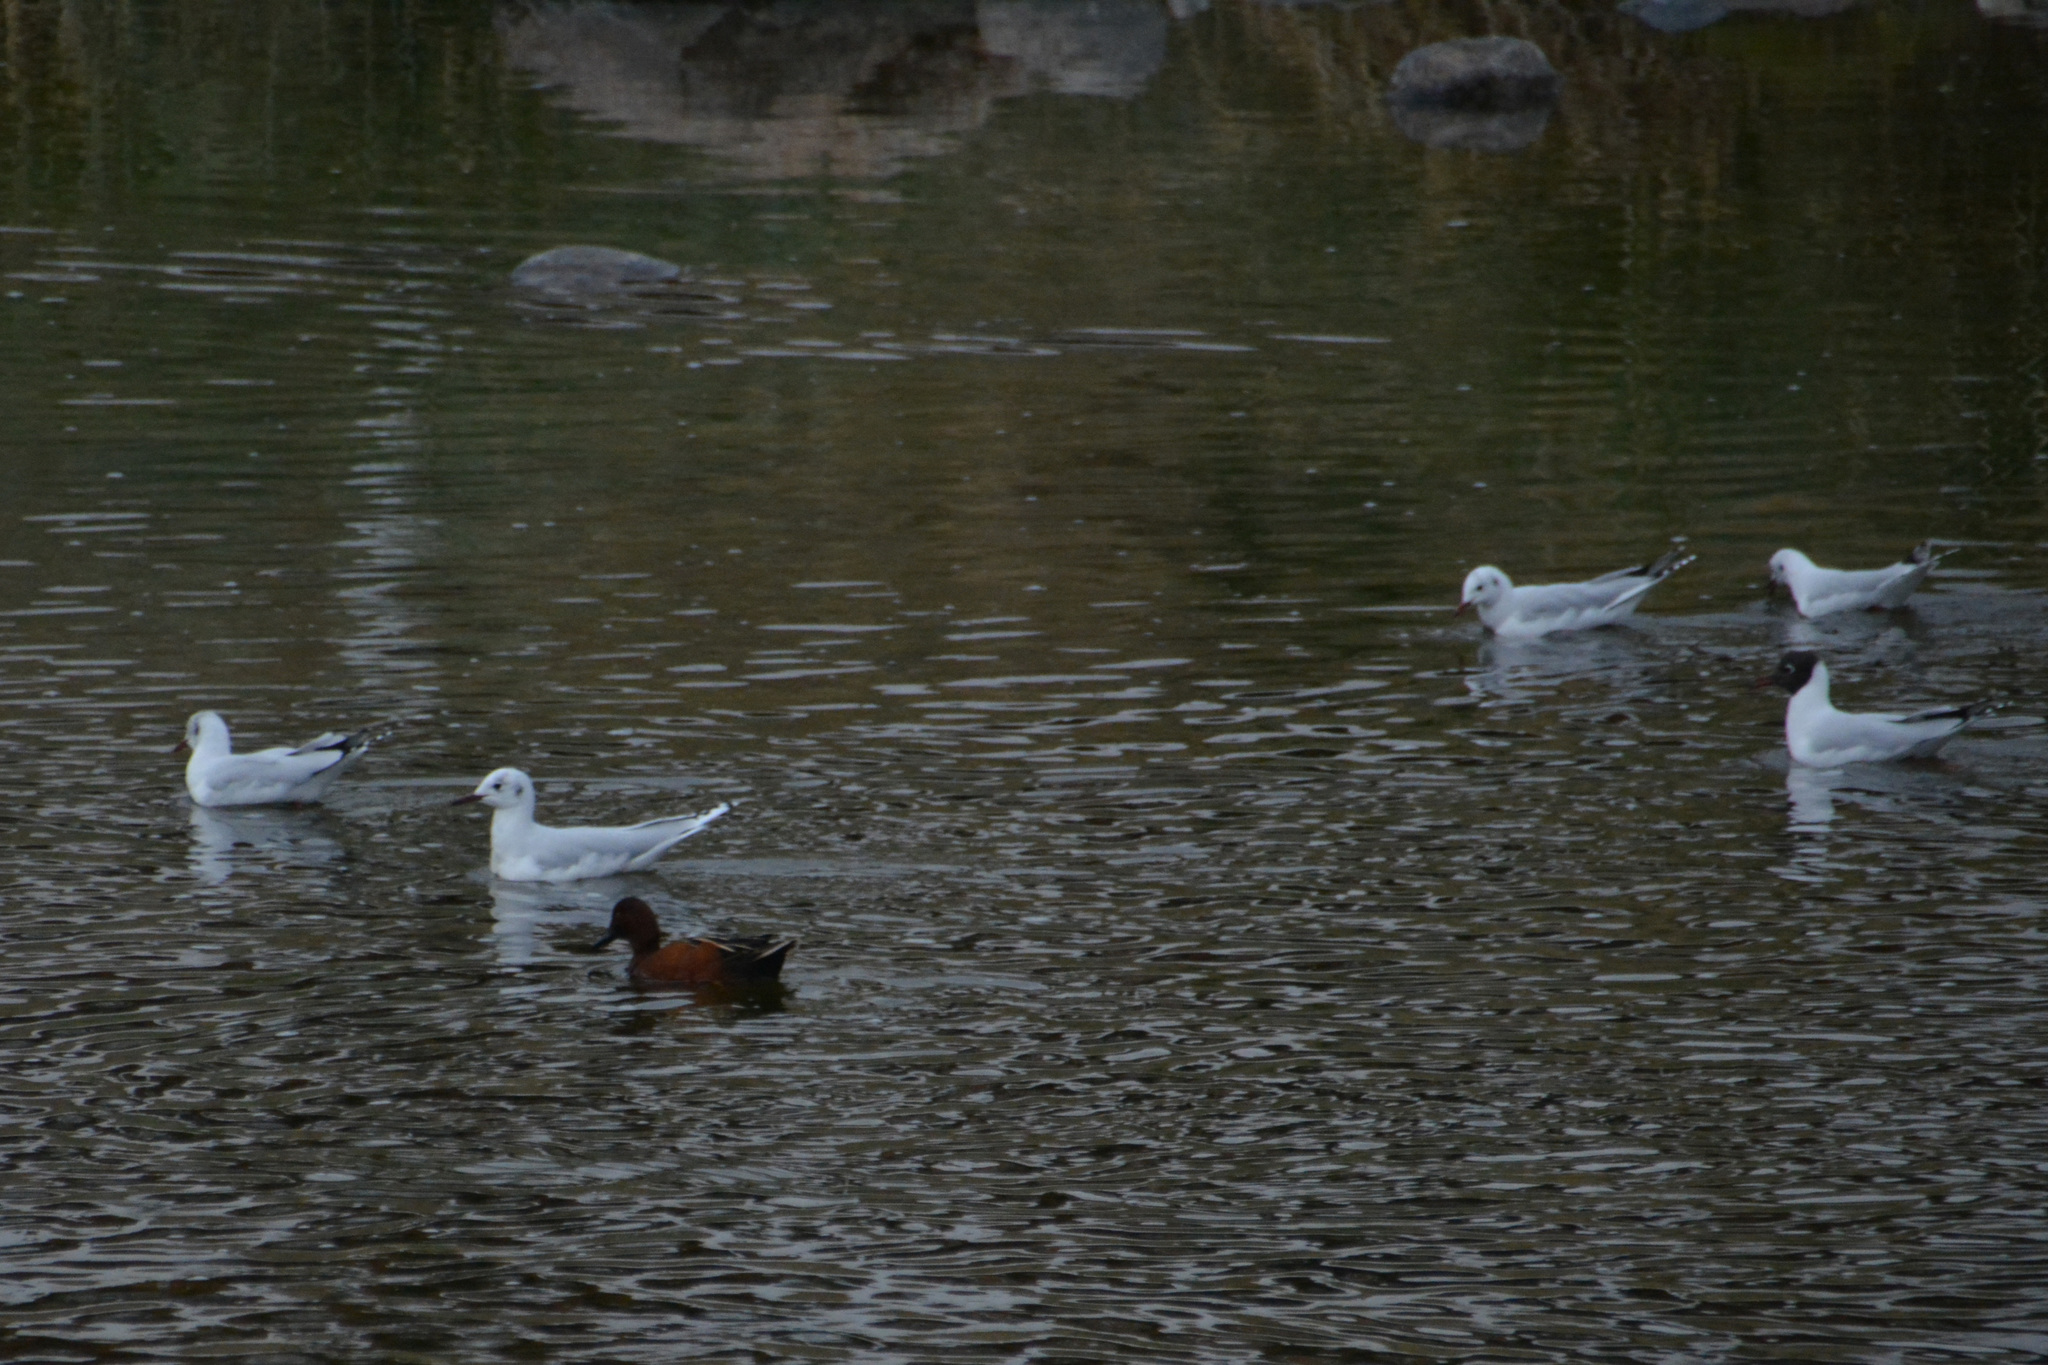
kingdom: Animalia
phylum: Chordata
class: Aves
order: Charadriiformes
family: Laridae
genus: Chroicocephalus
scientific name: Chroicocephalus maculipennis
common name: Brown-hooded gull
